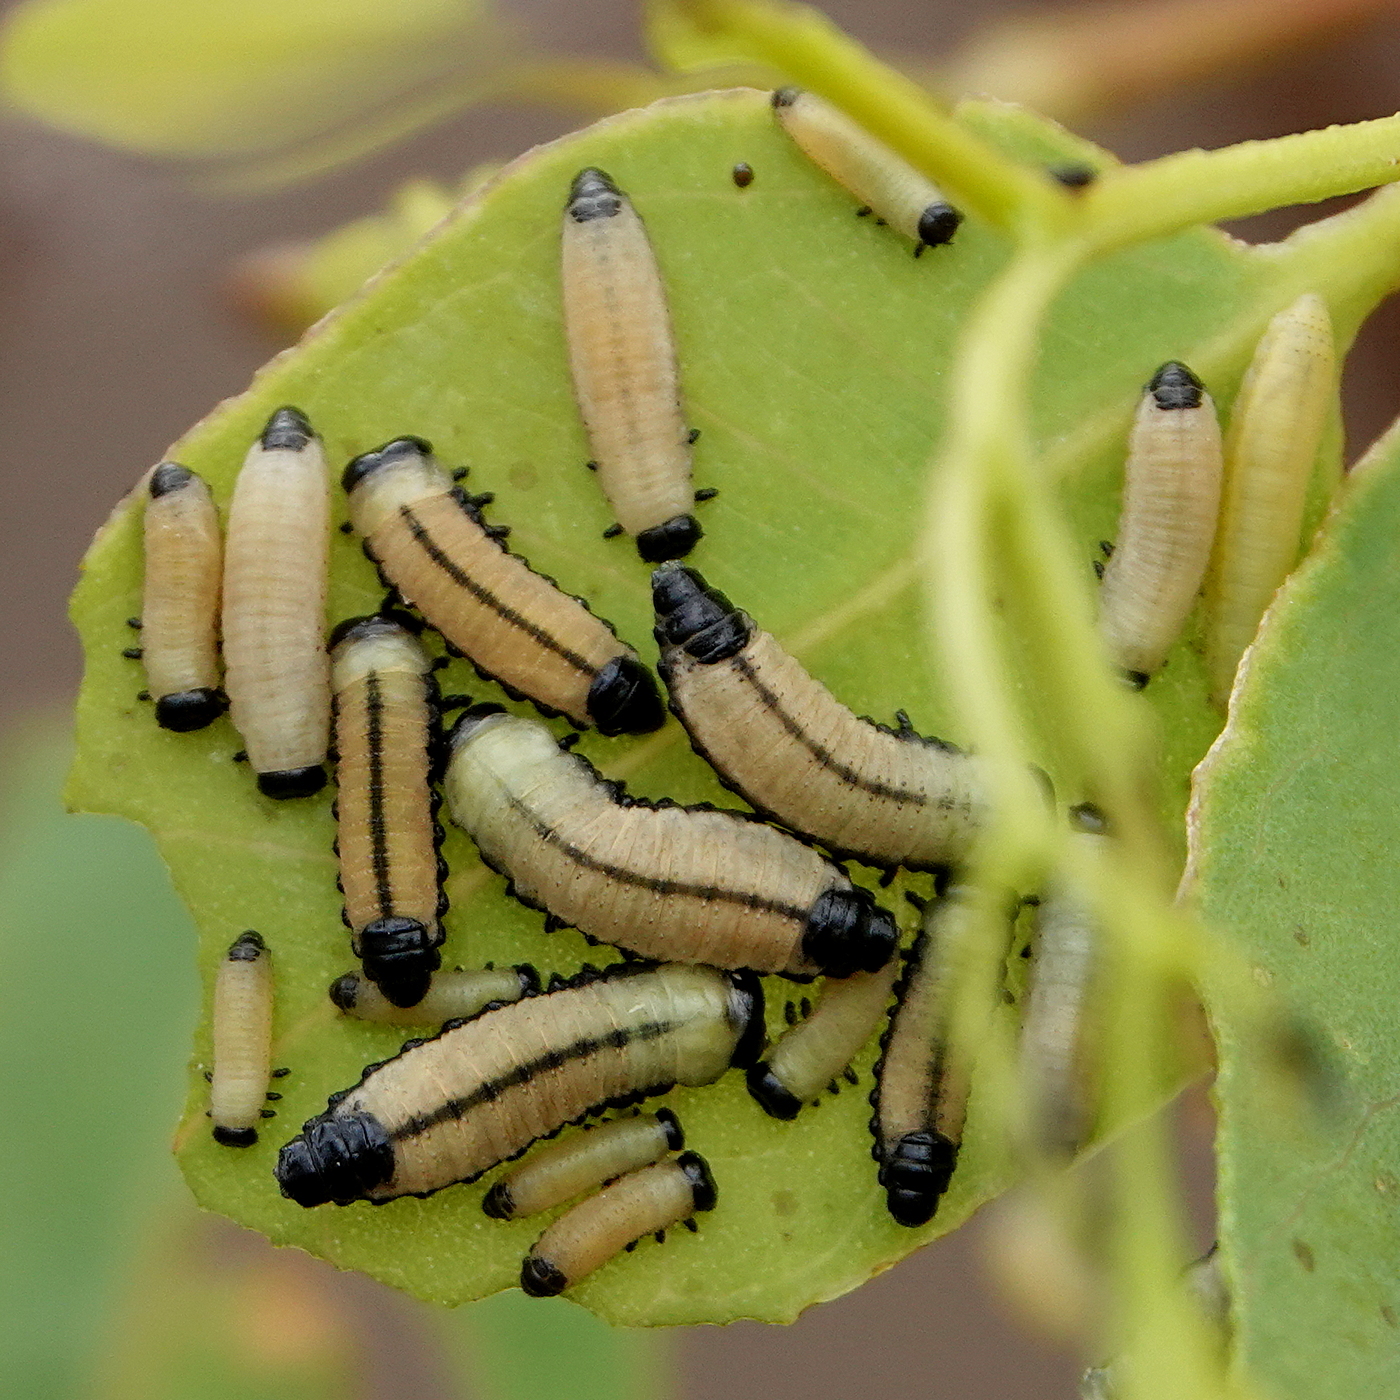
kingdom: Animalia
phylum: Arthropoda
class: Insecta
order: Coleoptera
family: Chrysomelidae
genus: Paropsisterna
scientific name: Paropsisterna cloelia
